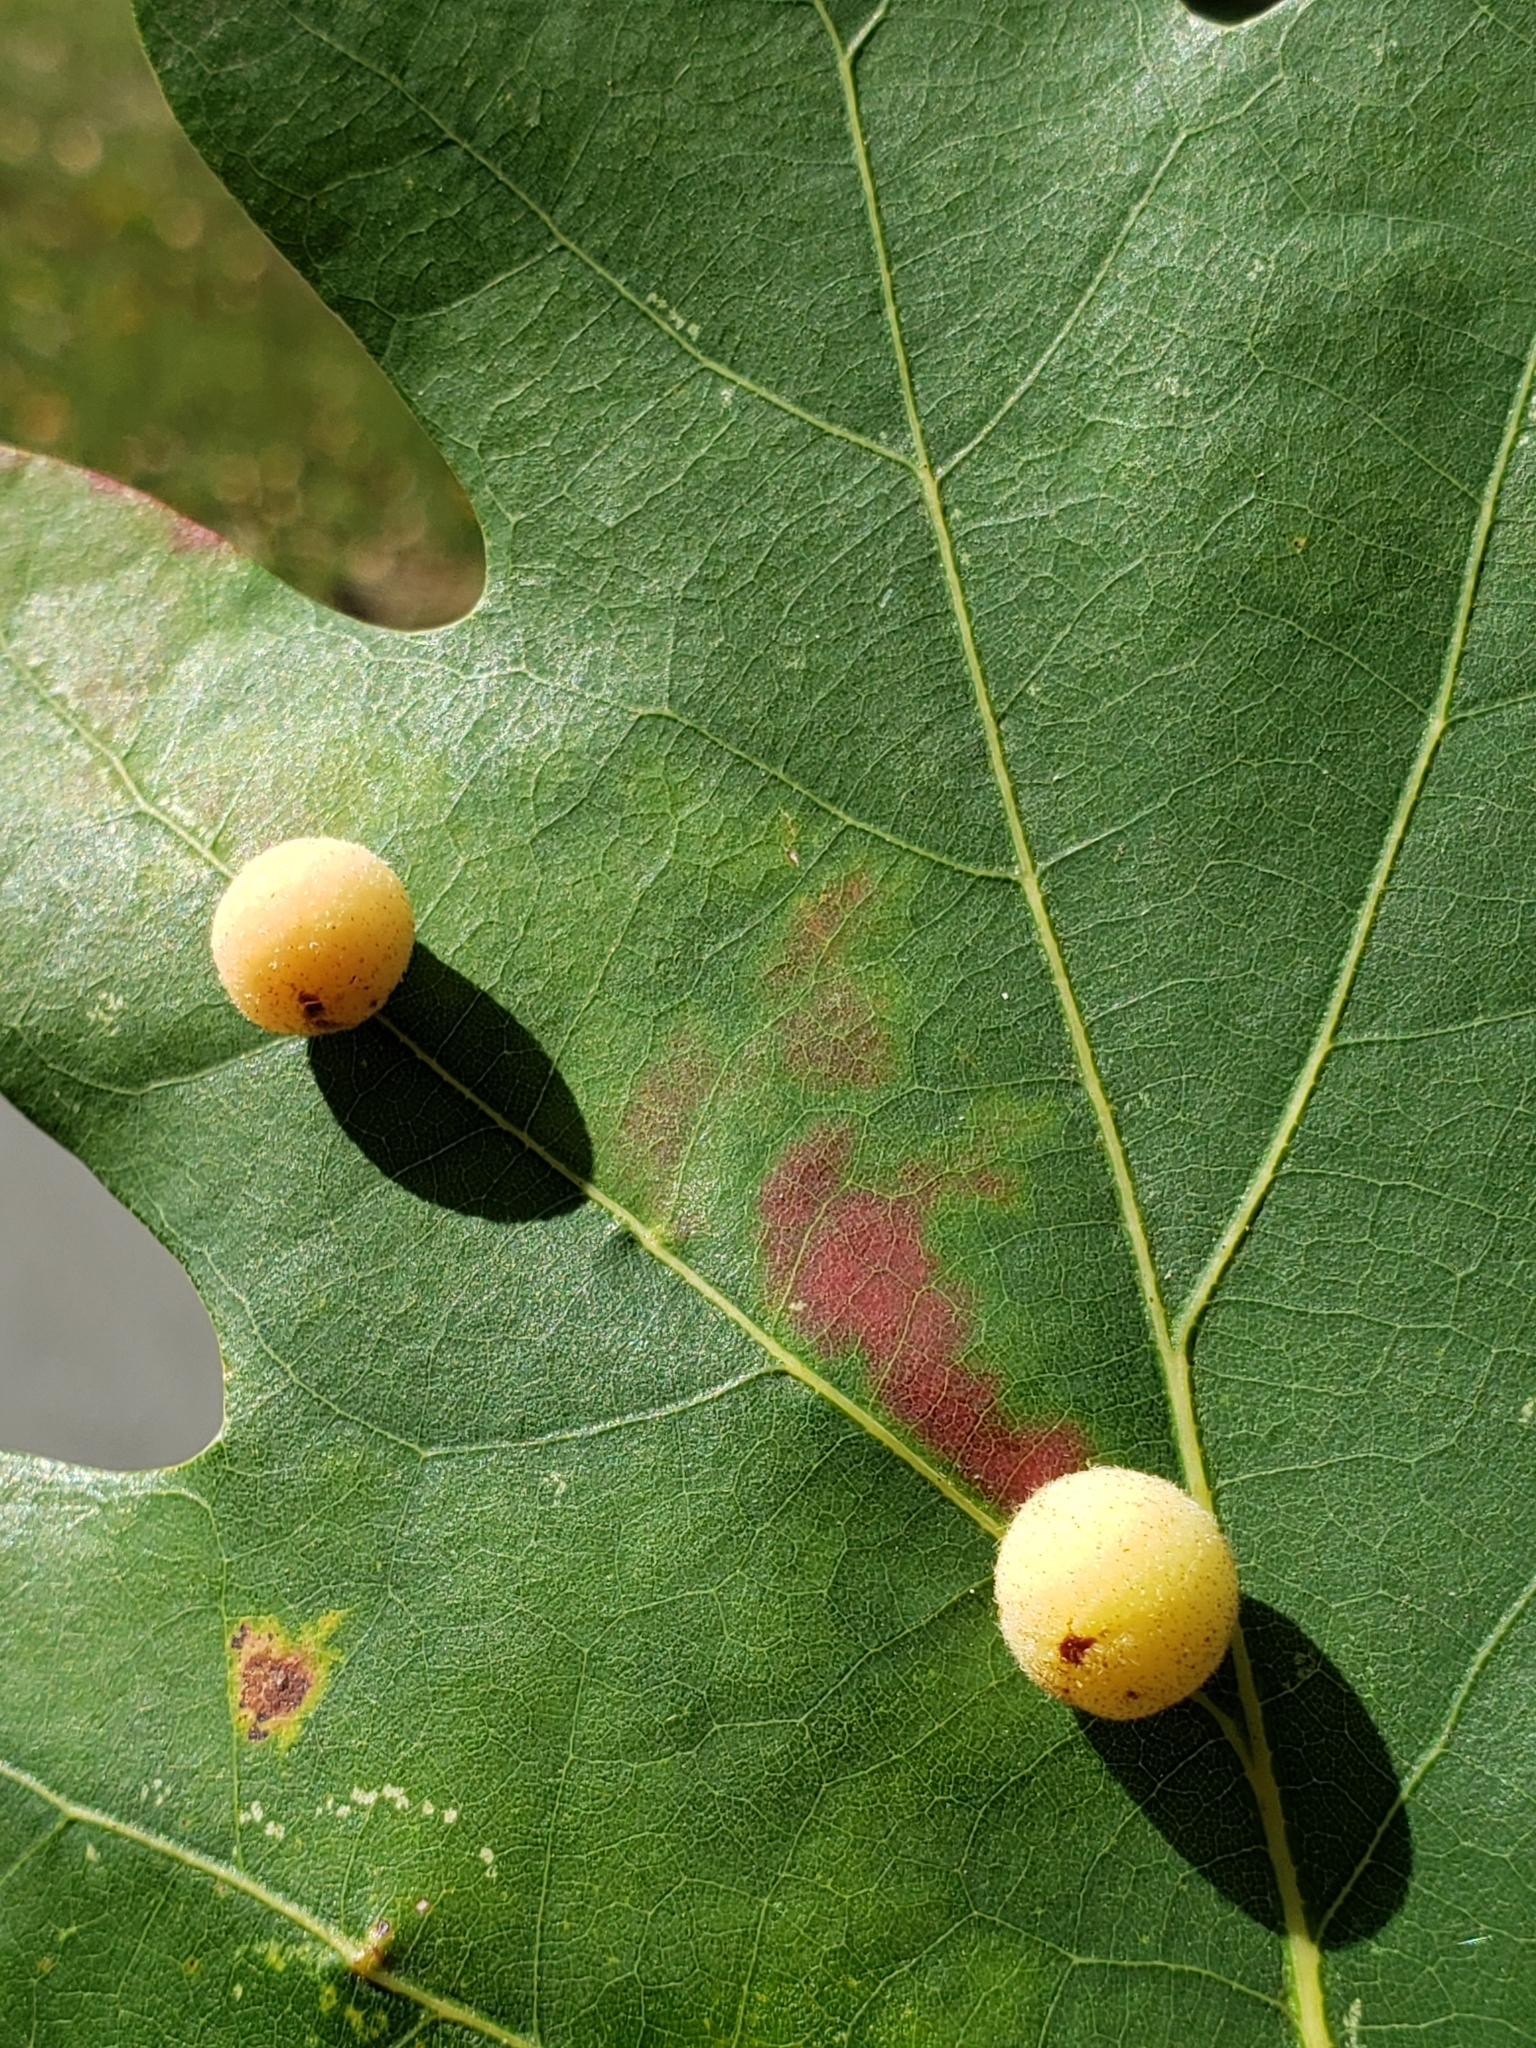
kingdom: Animalia
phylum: Arthropoda
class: Insecta
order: Hymenoptera
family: Cynipidae
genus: Philonix
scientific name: Philonix fulvicollis
